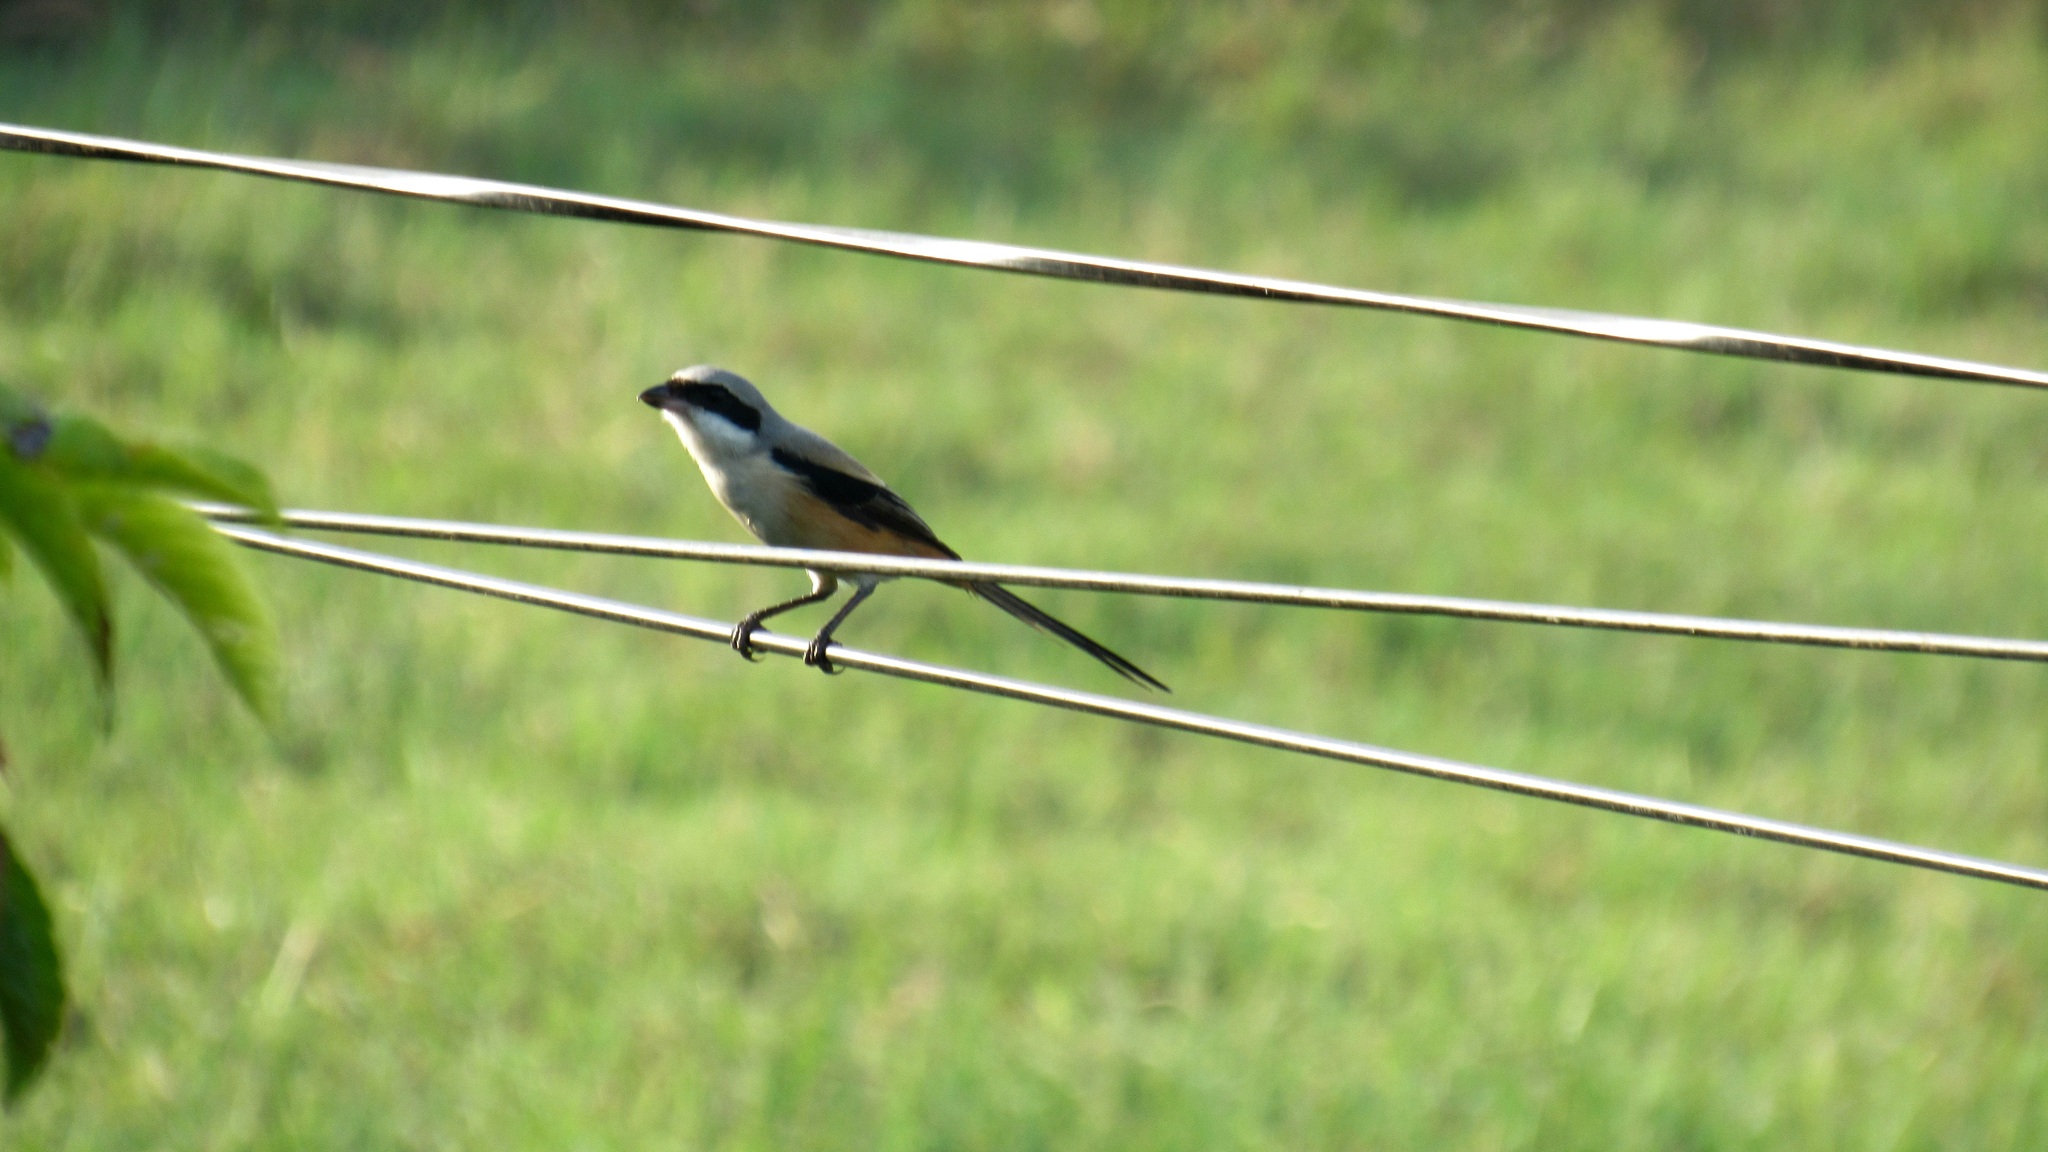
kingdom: Animalia
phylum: Chordata
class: Aves
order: Passeriformes
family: Laniidae
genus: Lanius
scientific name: Lanius schach
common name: Long-tailed shrike
